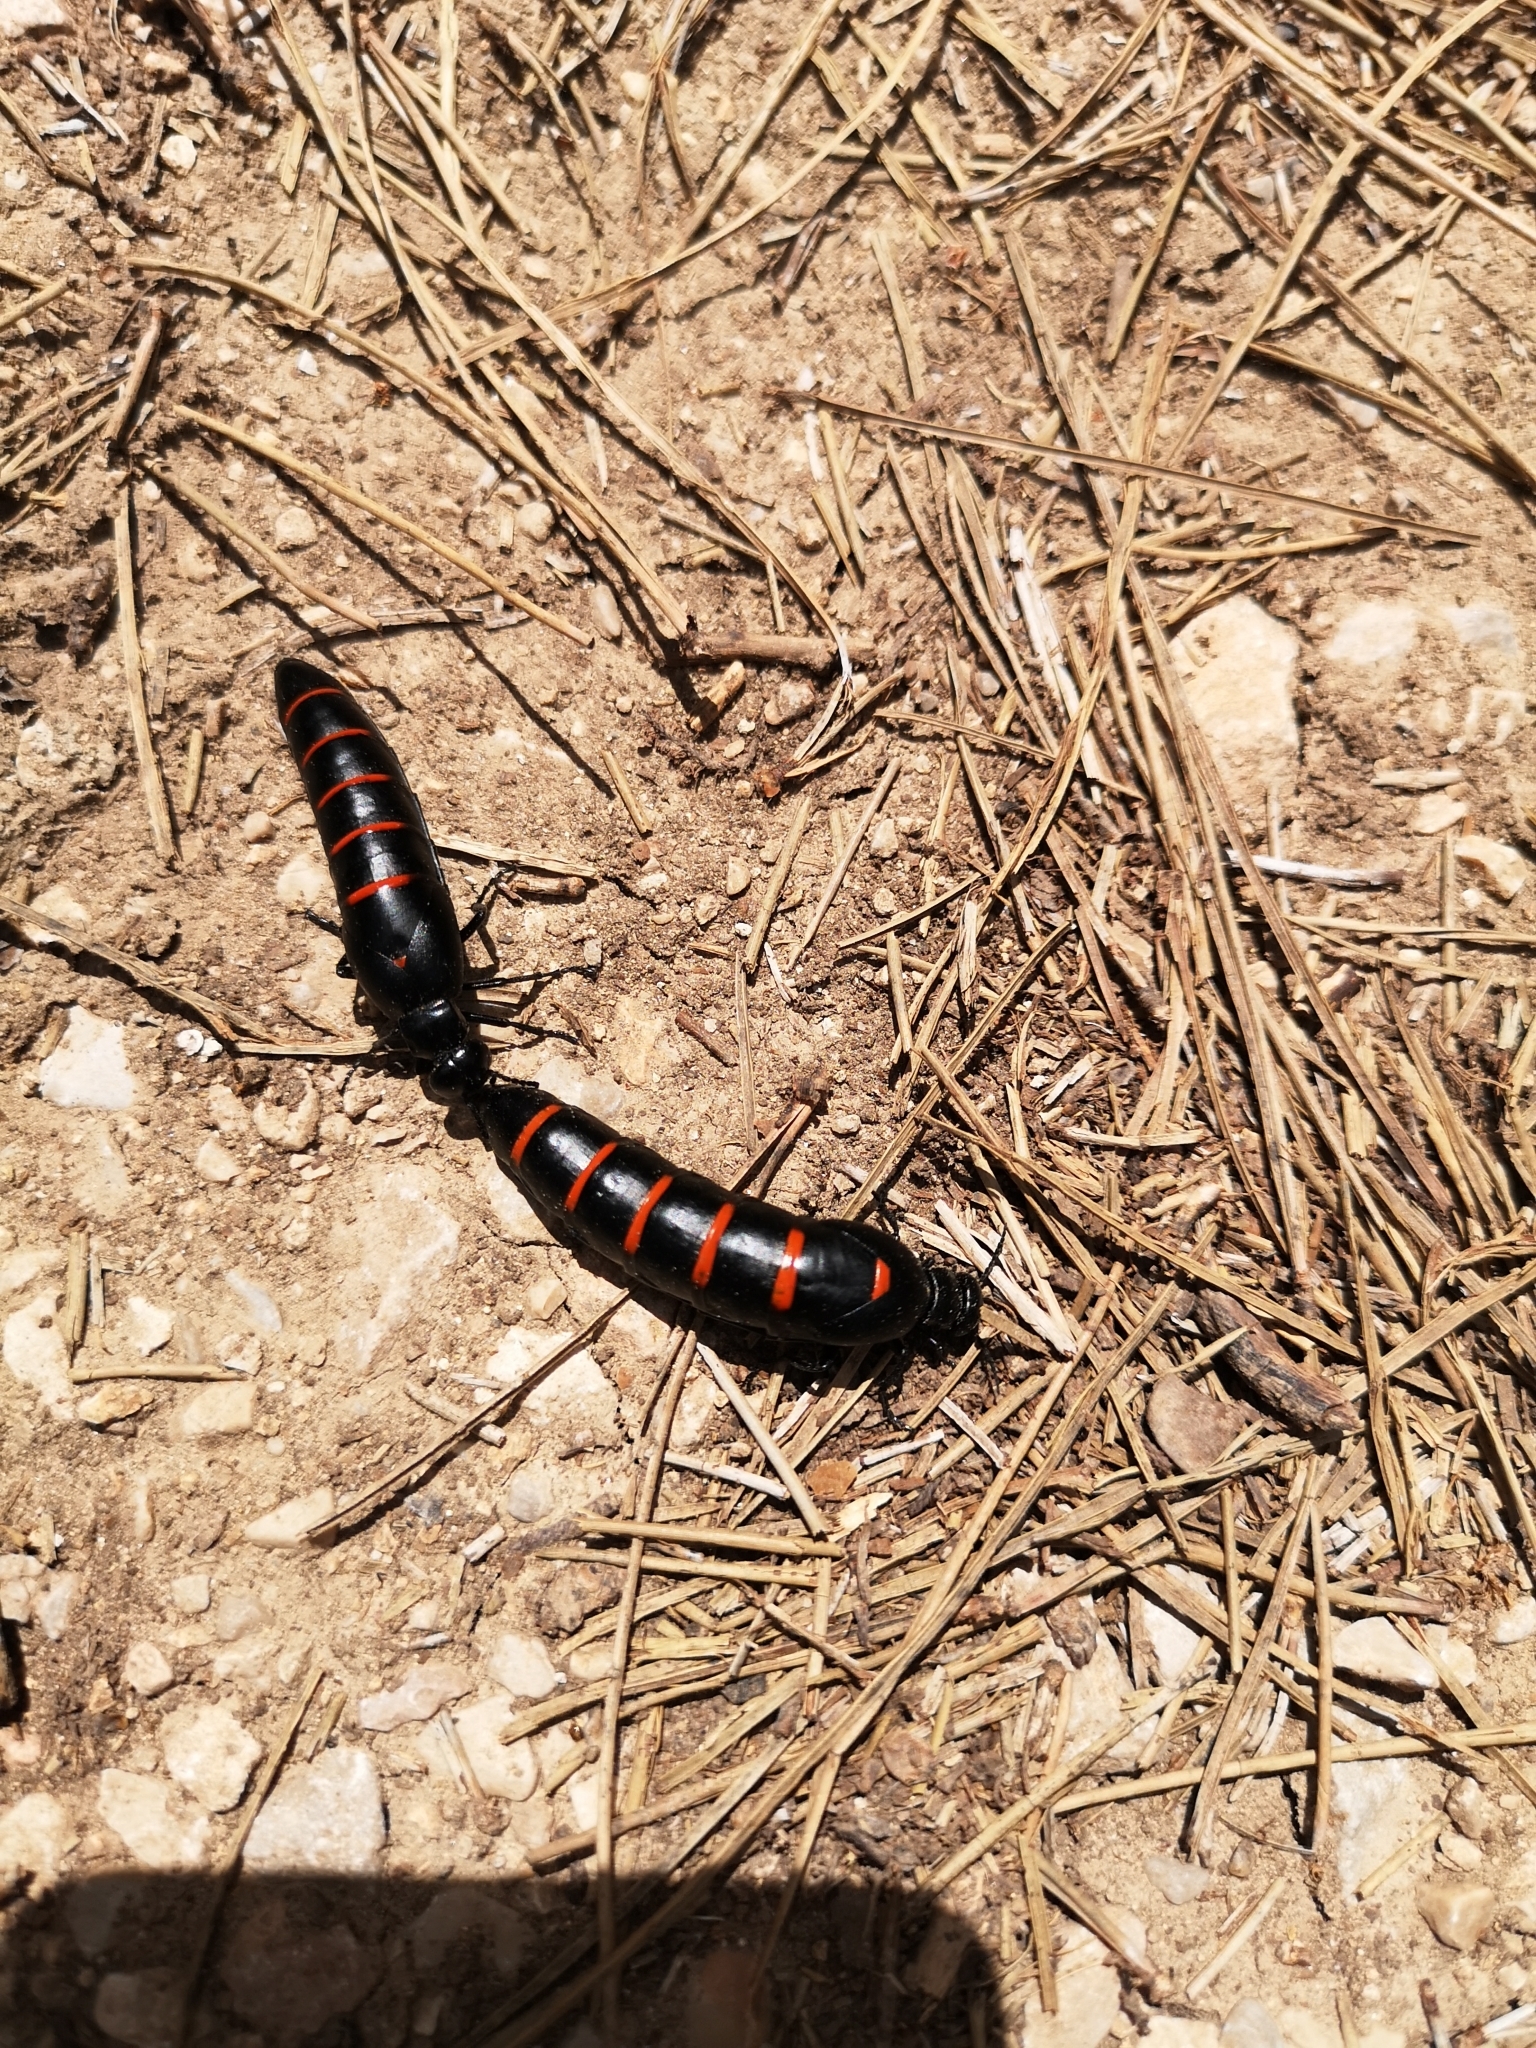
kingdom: Animalia
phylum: Arthropoda
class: Insecta
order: Coleoptera
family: Meloidae
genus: Berberomeloe
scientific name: Berberomeloe majalis
